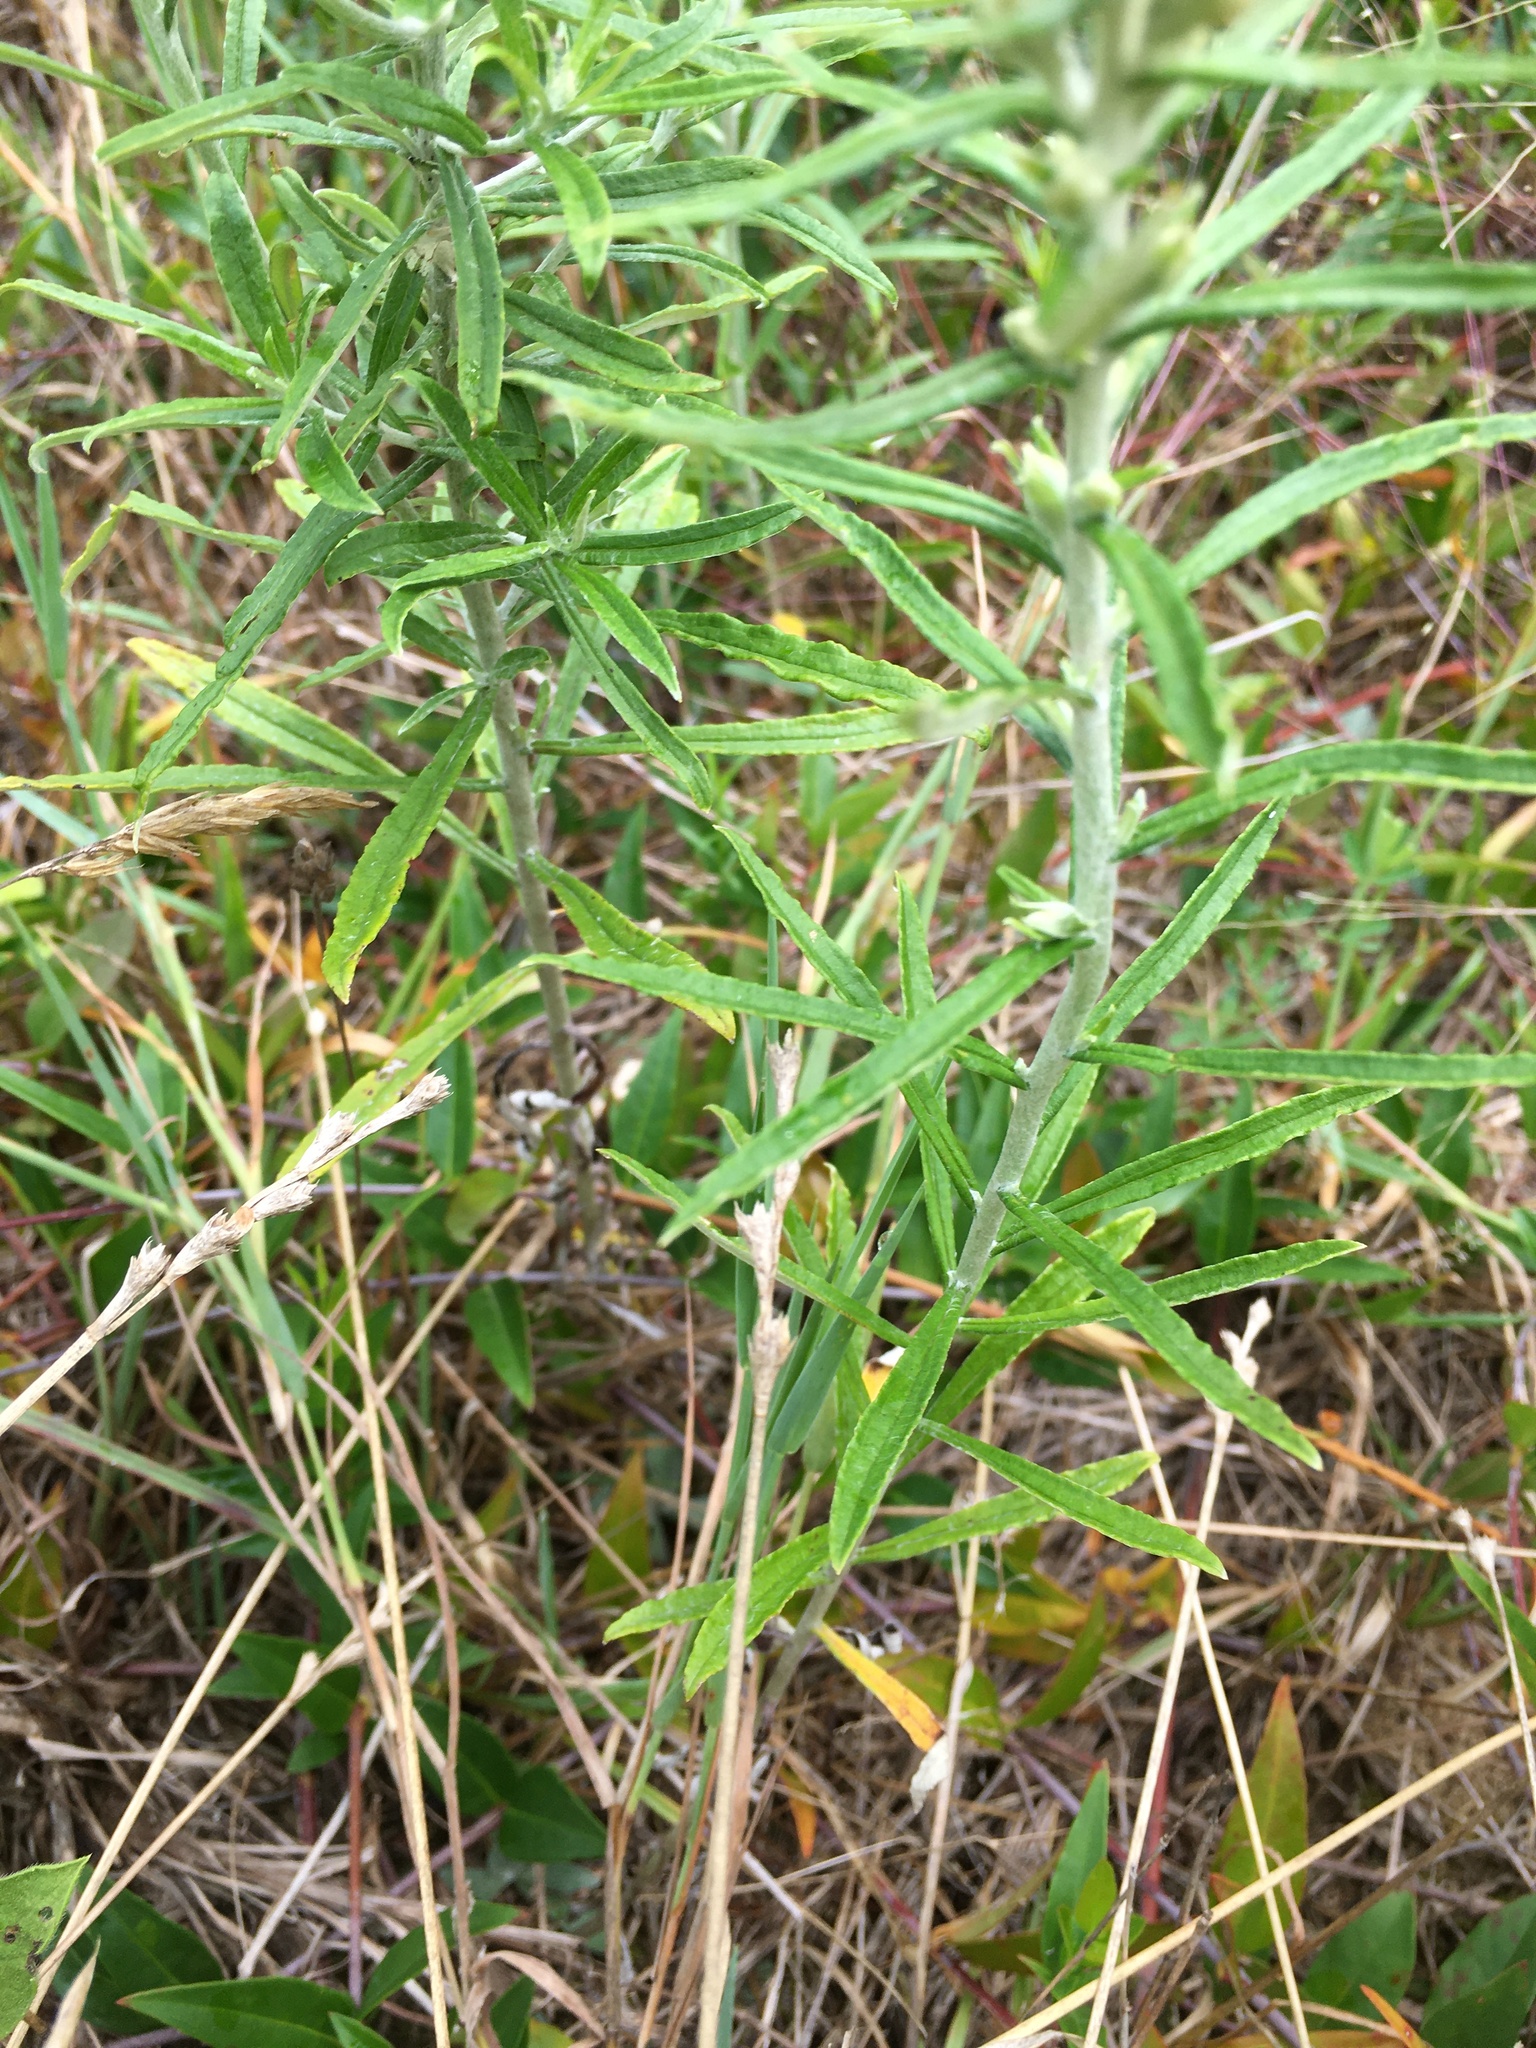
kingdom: Plantae
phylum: Tracheophyta
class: Magnoliopsida
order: Asterales
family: Asteraceae
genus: Pseudognaphalium
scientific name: Pseudognaphalium obtusifolium
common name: Eastern rabbit-tobacco
